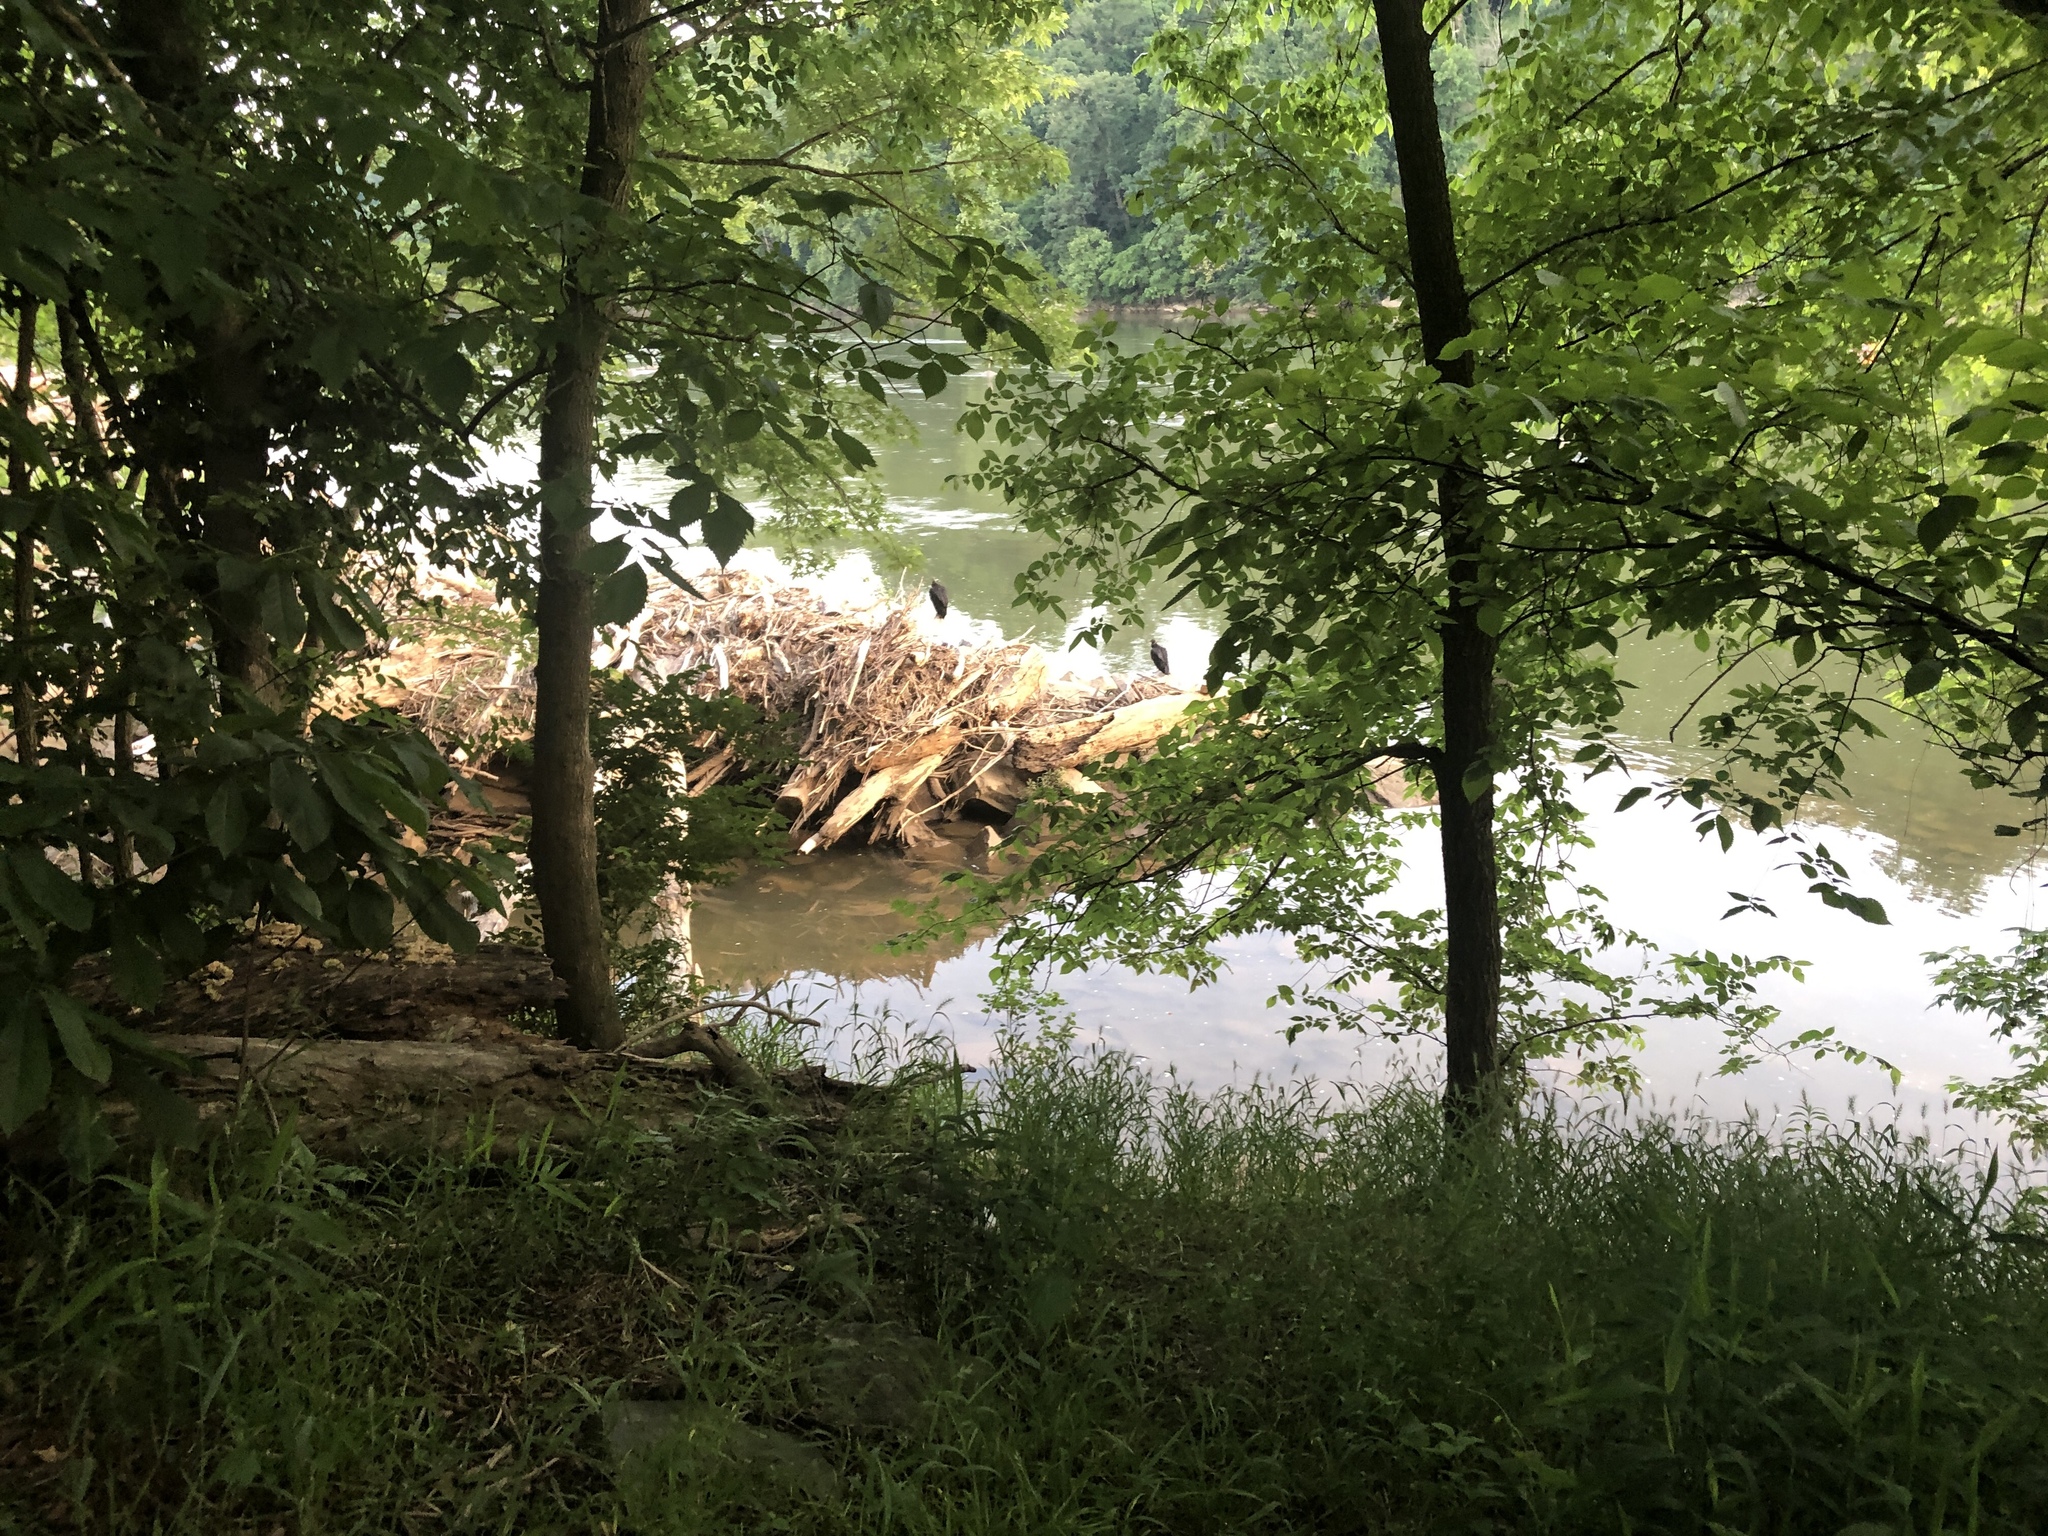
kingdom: Animalia
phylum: Chordata
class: Aves
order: Accipitriformes
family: Cathartidae
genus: Coragyps
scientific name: Coragyps atratus
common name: Black vulture
